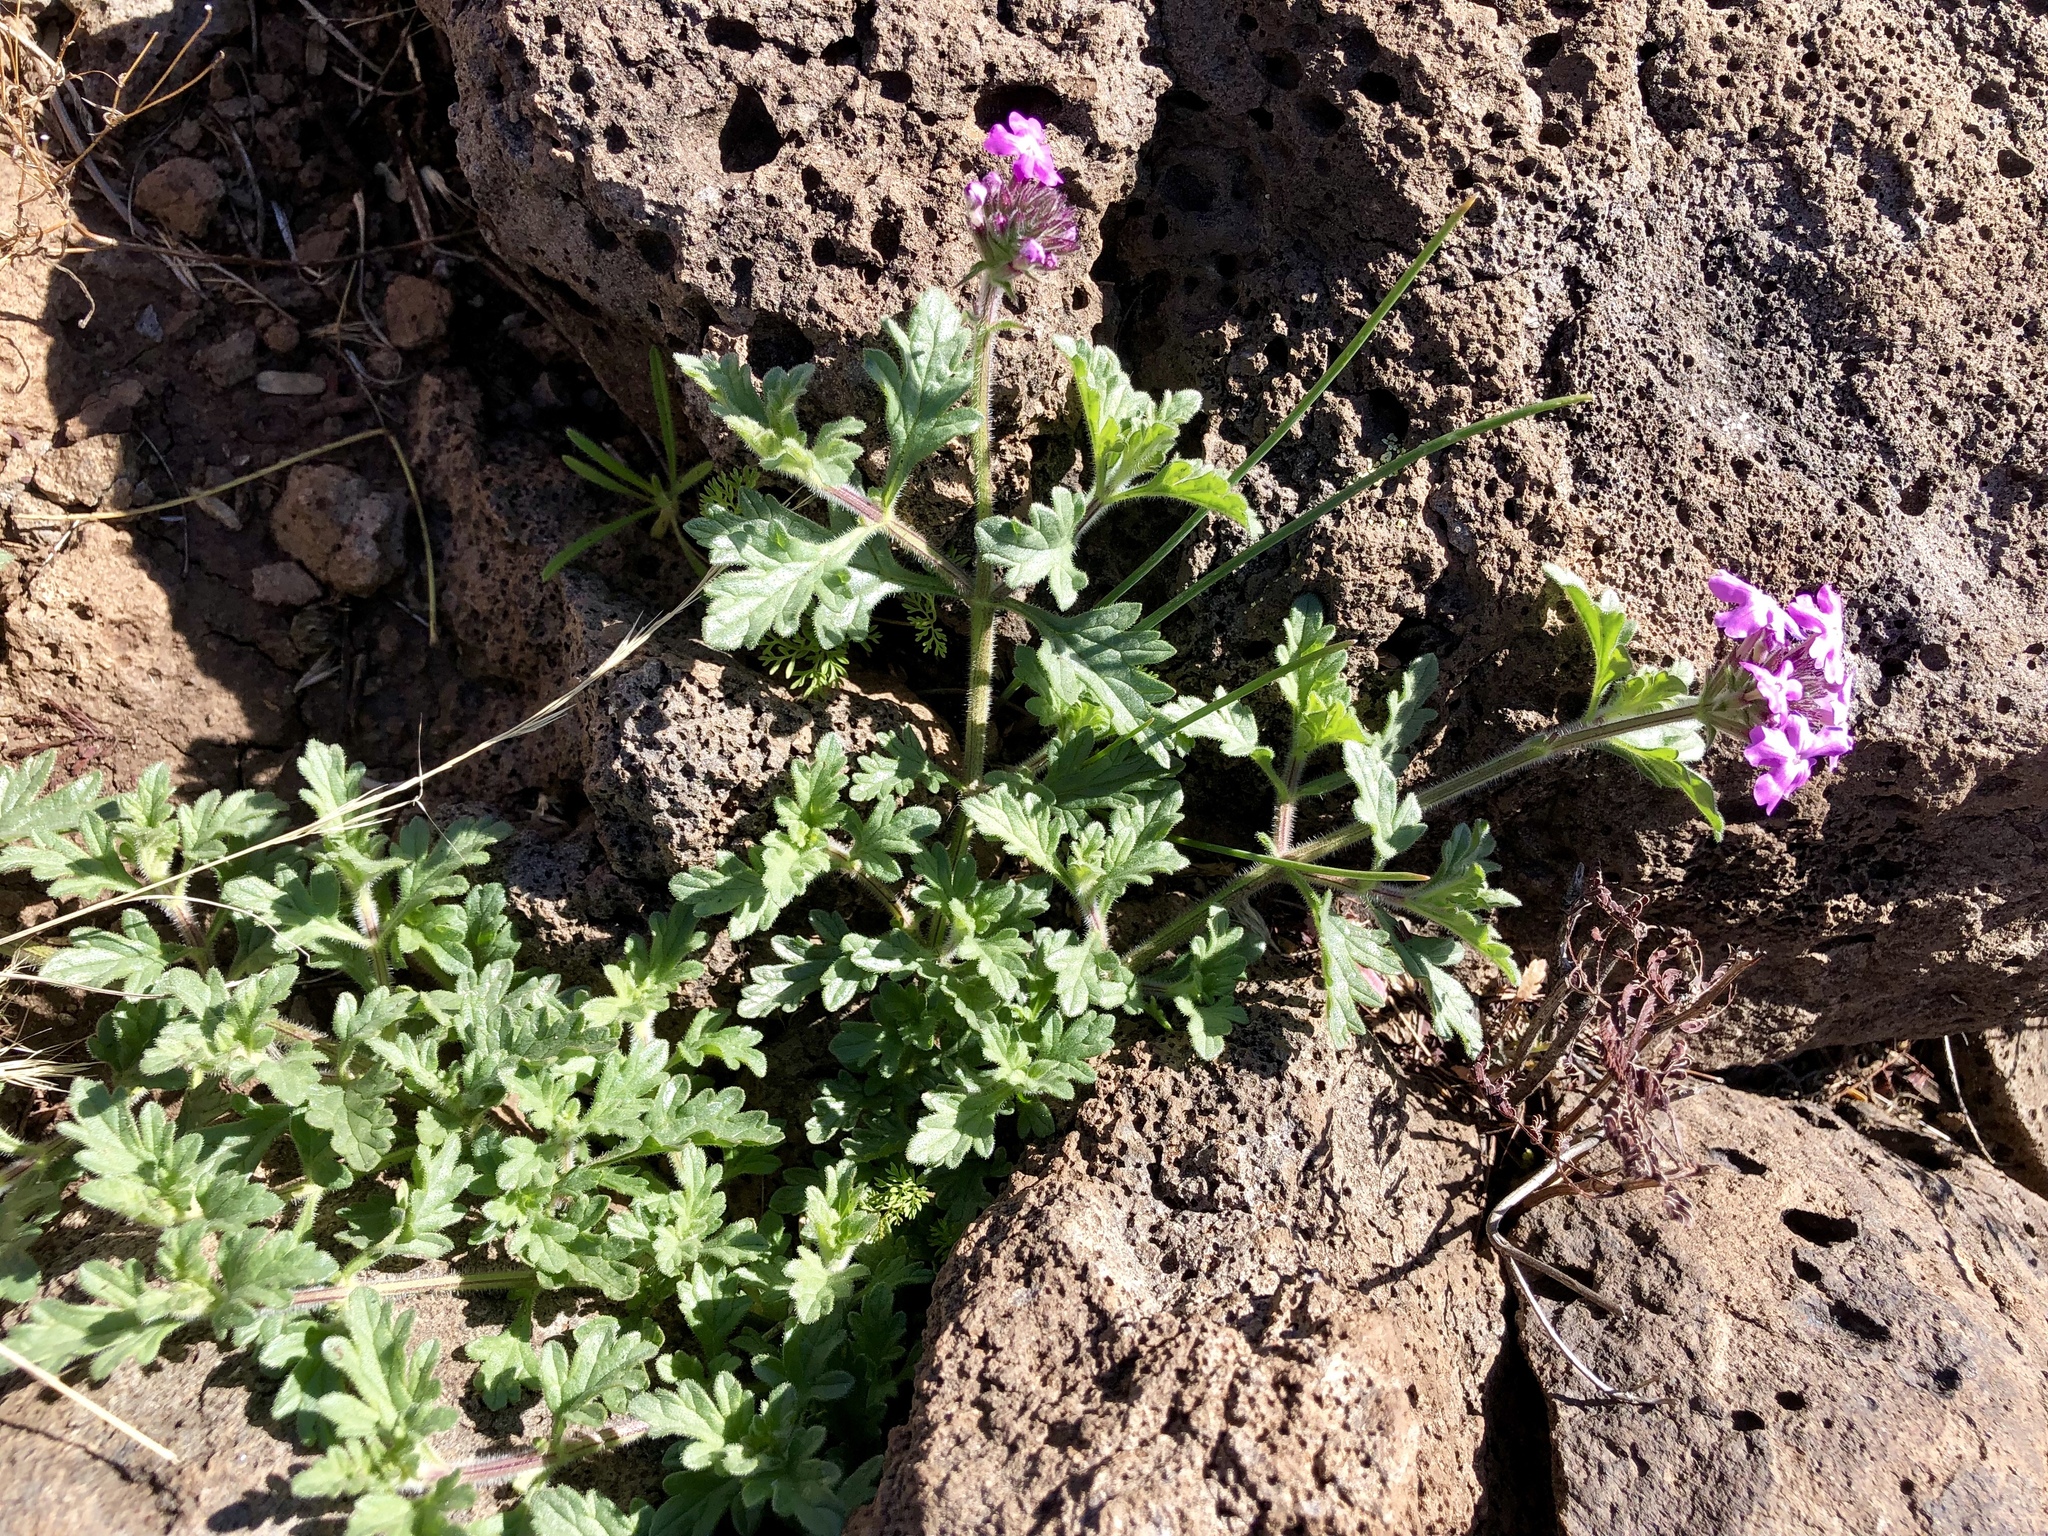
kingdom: Plantae
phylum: Tracheophyta
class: Magnoliopsida
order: Lamiales
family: Verbenaceae
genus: Verbena
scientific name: Verbena gooddingii
